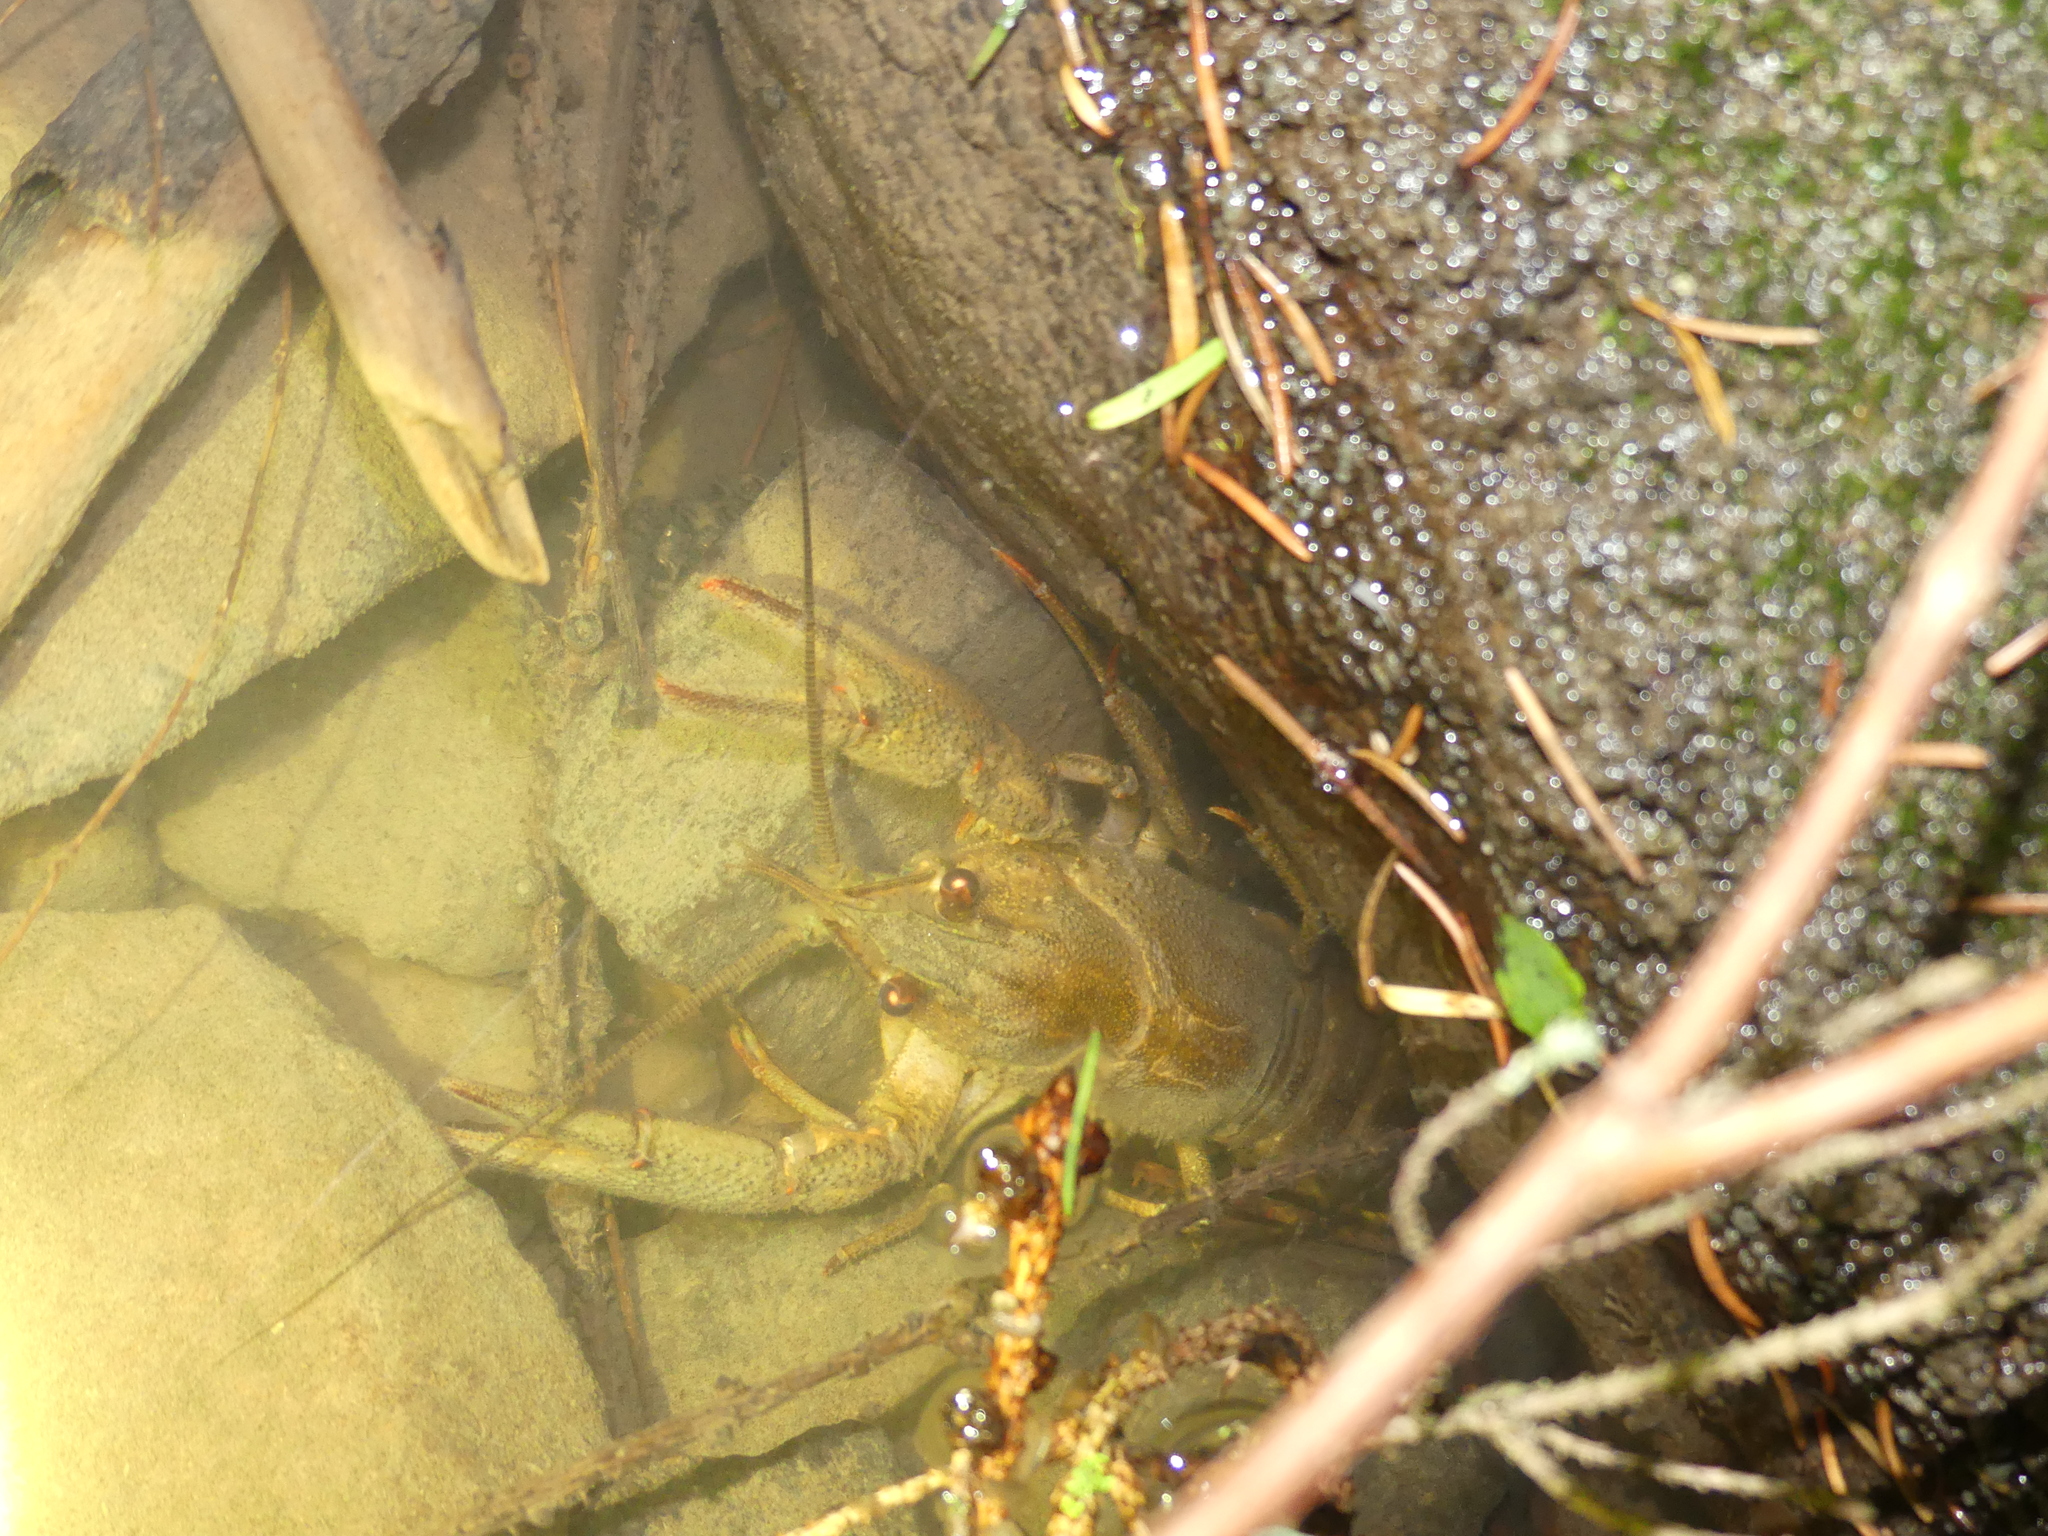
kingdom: Animalia
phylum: Arthropoda
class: Malacostraca
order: Decapoda
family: Astacidae
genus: Pontastacus
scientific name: Pontastacus leptodactylus
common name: Danube crayfish
